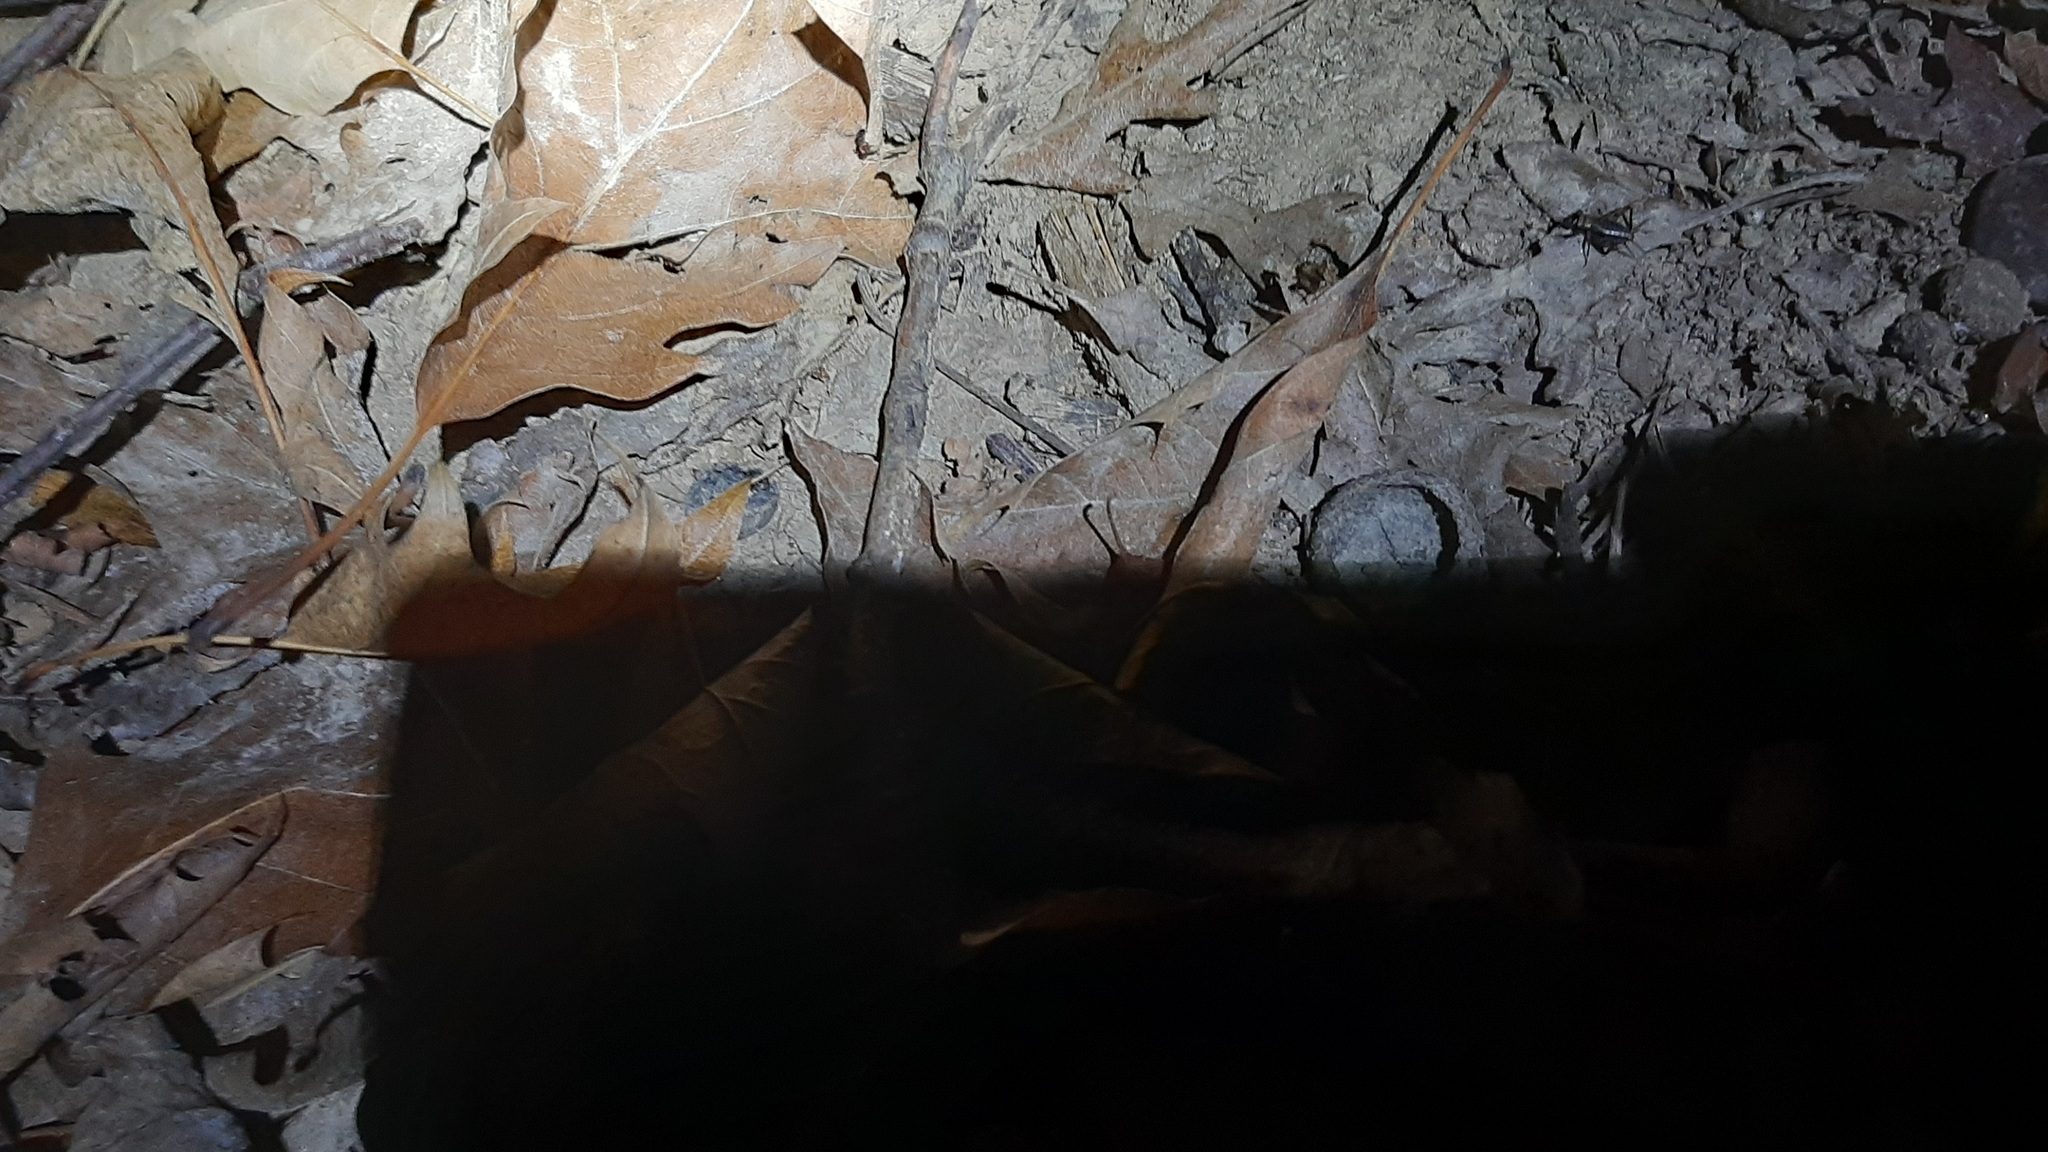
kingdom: Animalia
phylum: Arthropoda
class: Insecta
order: Orthoptera
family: Trigonidiidae
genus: Nemobius
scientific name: Nemobius sylvestris
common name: Wood-cricket
